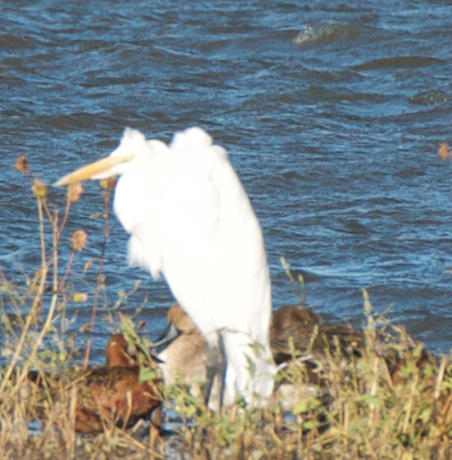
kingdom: Animalia
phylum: Chordata
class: Aves
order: Pelecaniformes
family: Ardeidae
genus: Ardea
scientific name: Ardea alba
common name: Great egret
